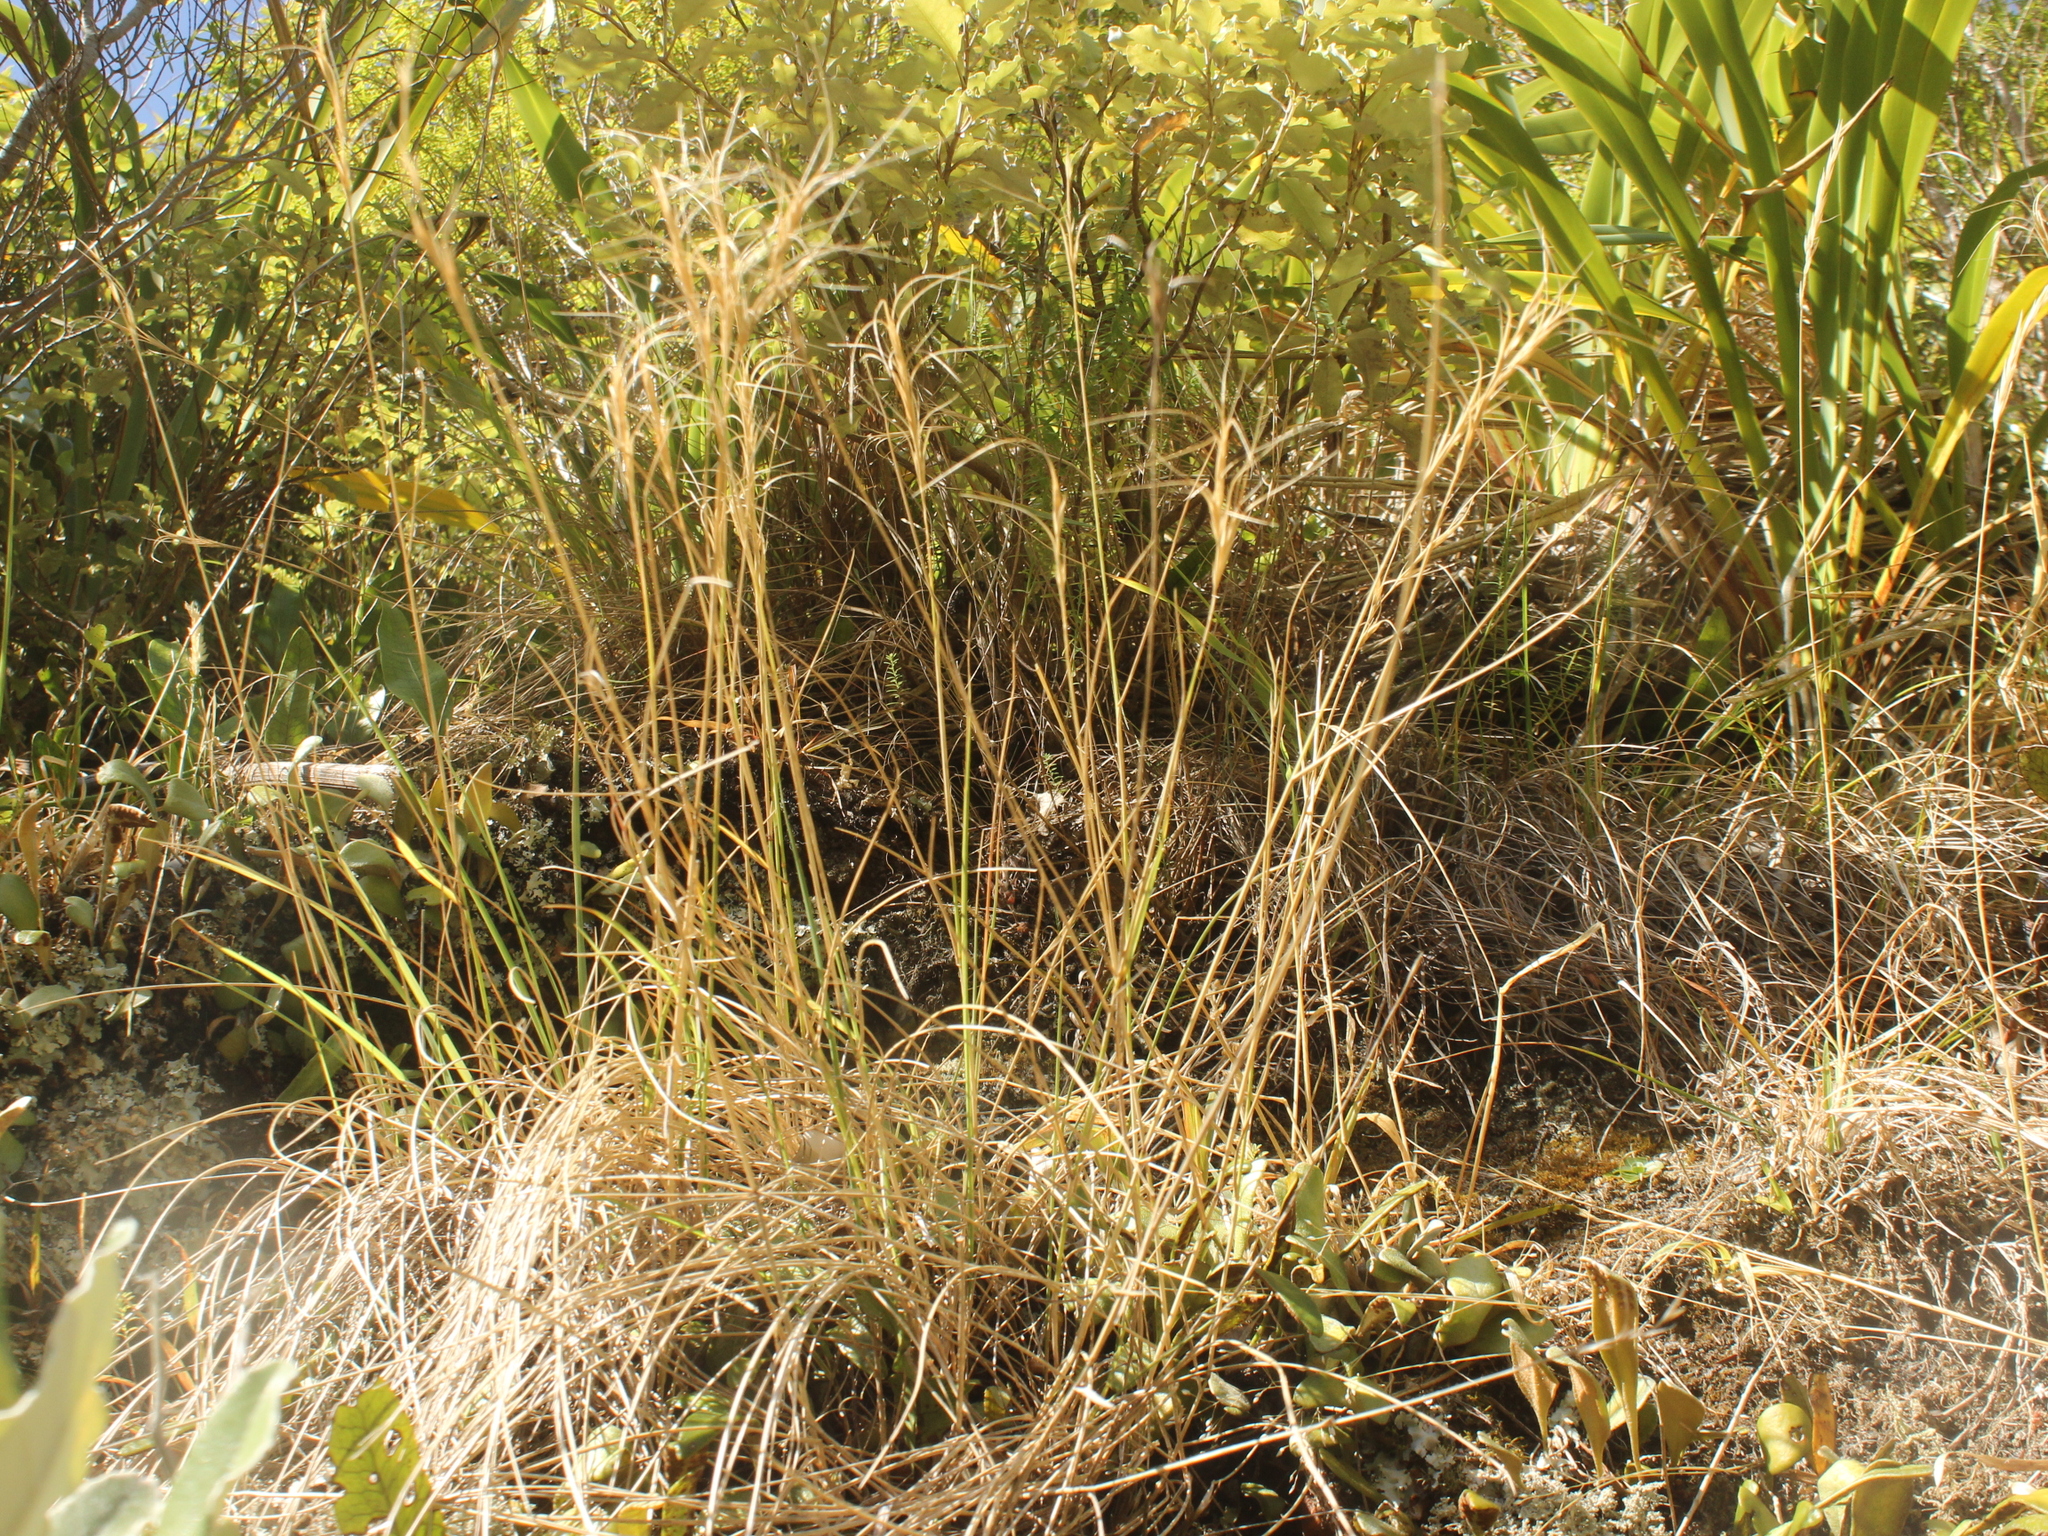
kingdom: Plantae
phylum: Tracheophyta
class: Liliopsida
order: Poales
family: Poaceae
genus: Anthosachne
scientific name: Anthosachne scabra
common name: Common wheatgrass
